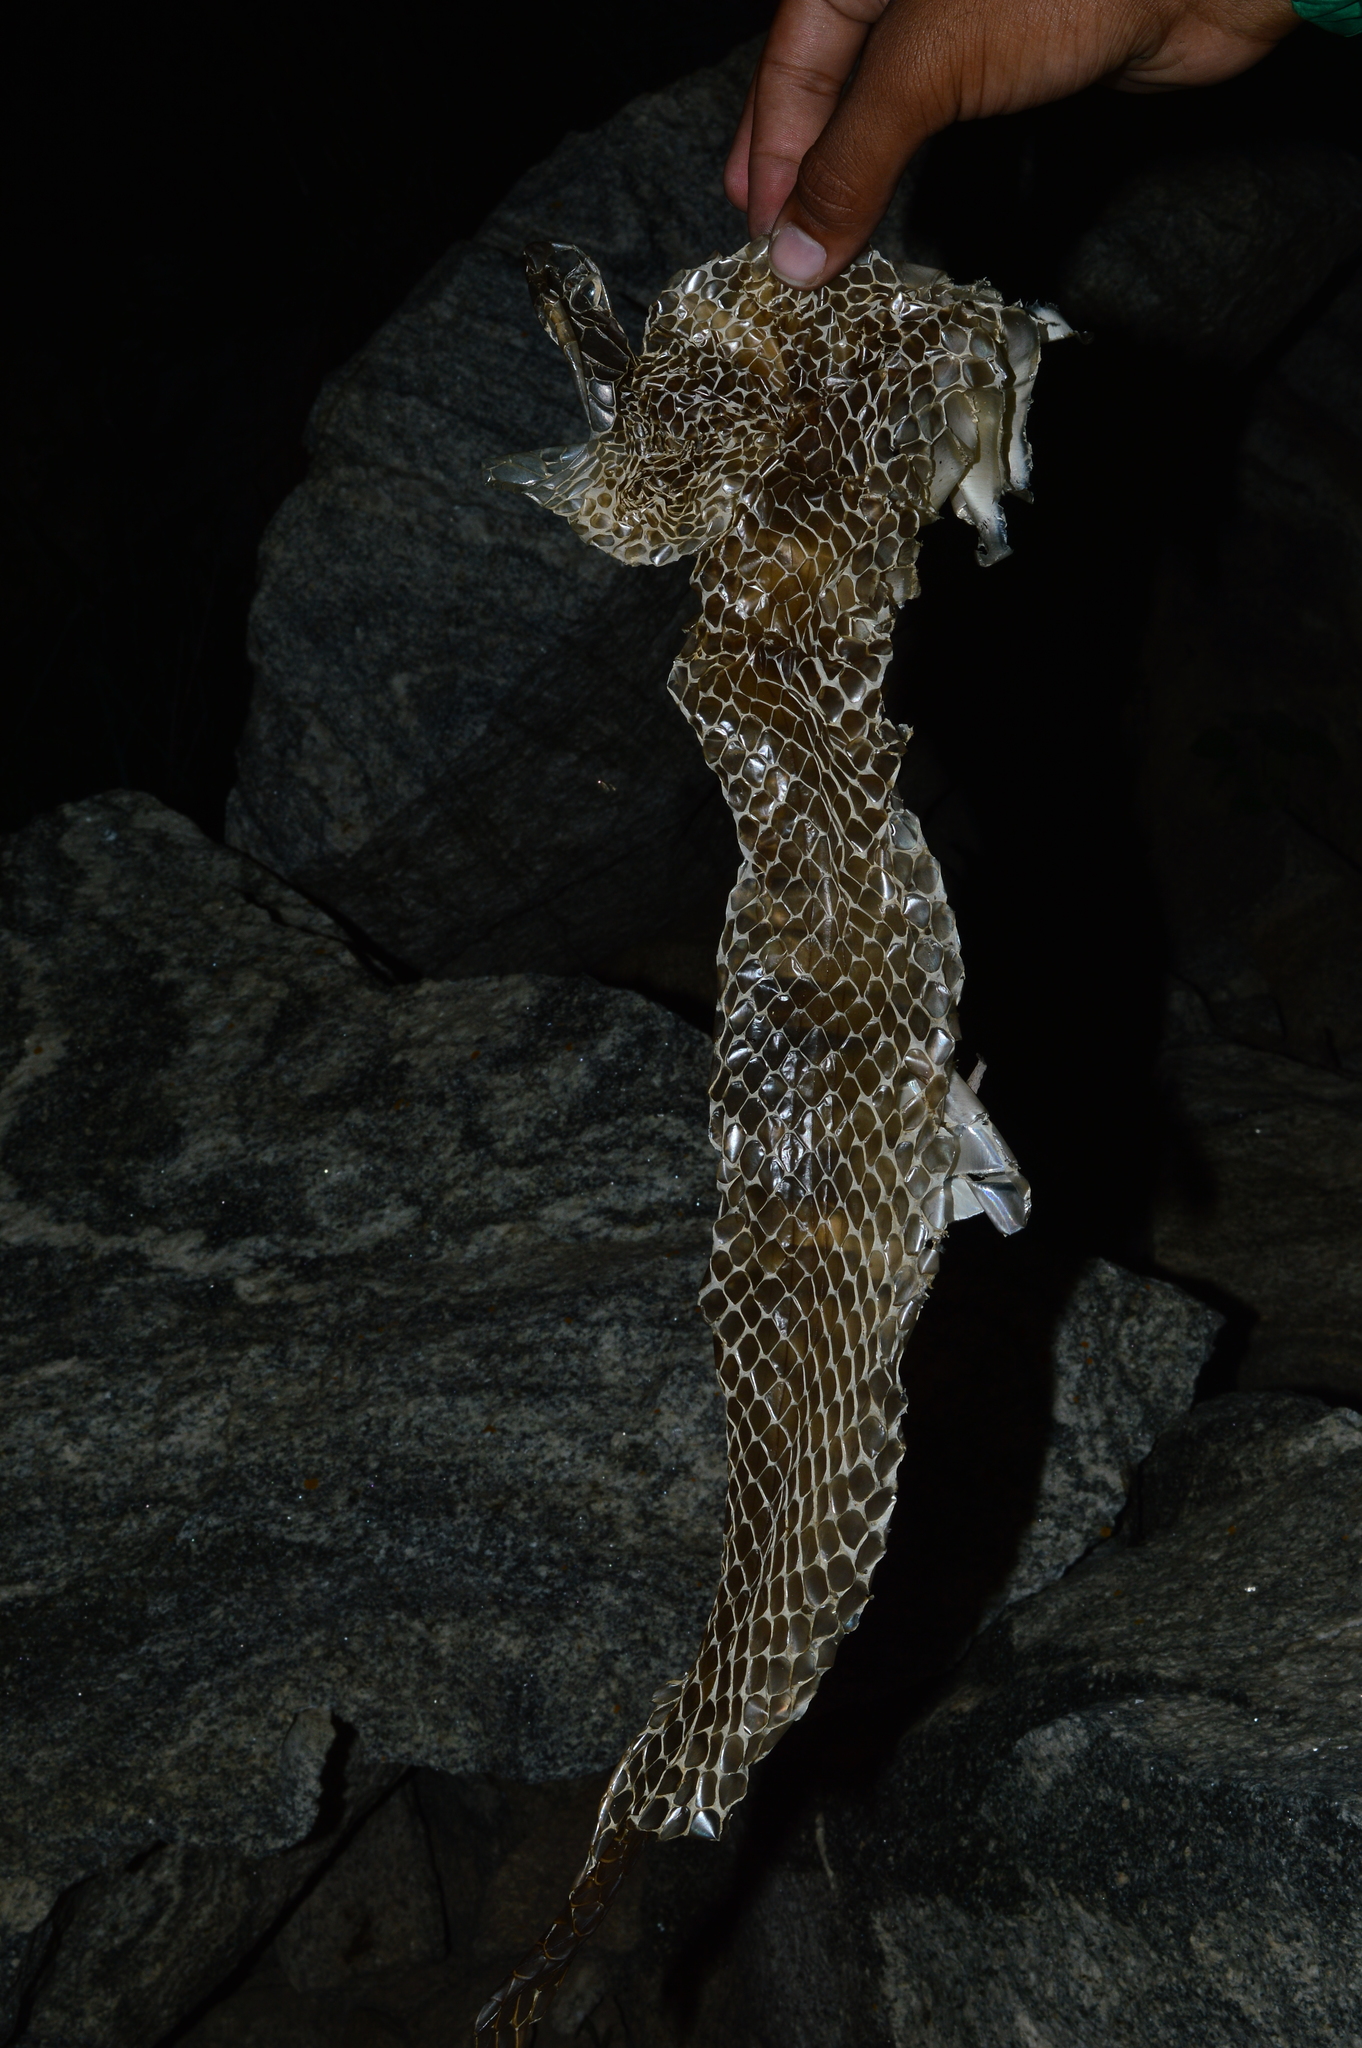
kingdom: Animalia
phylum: Chordata
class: Squamata
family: Colubridae
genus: Ptyas
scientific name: Ptyas mucosa
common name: Oriental ratsnake
